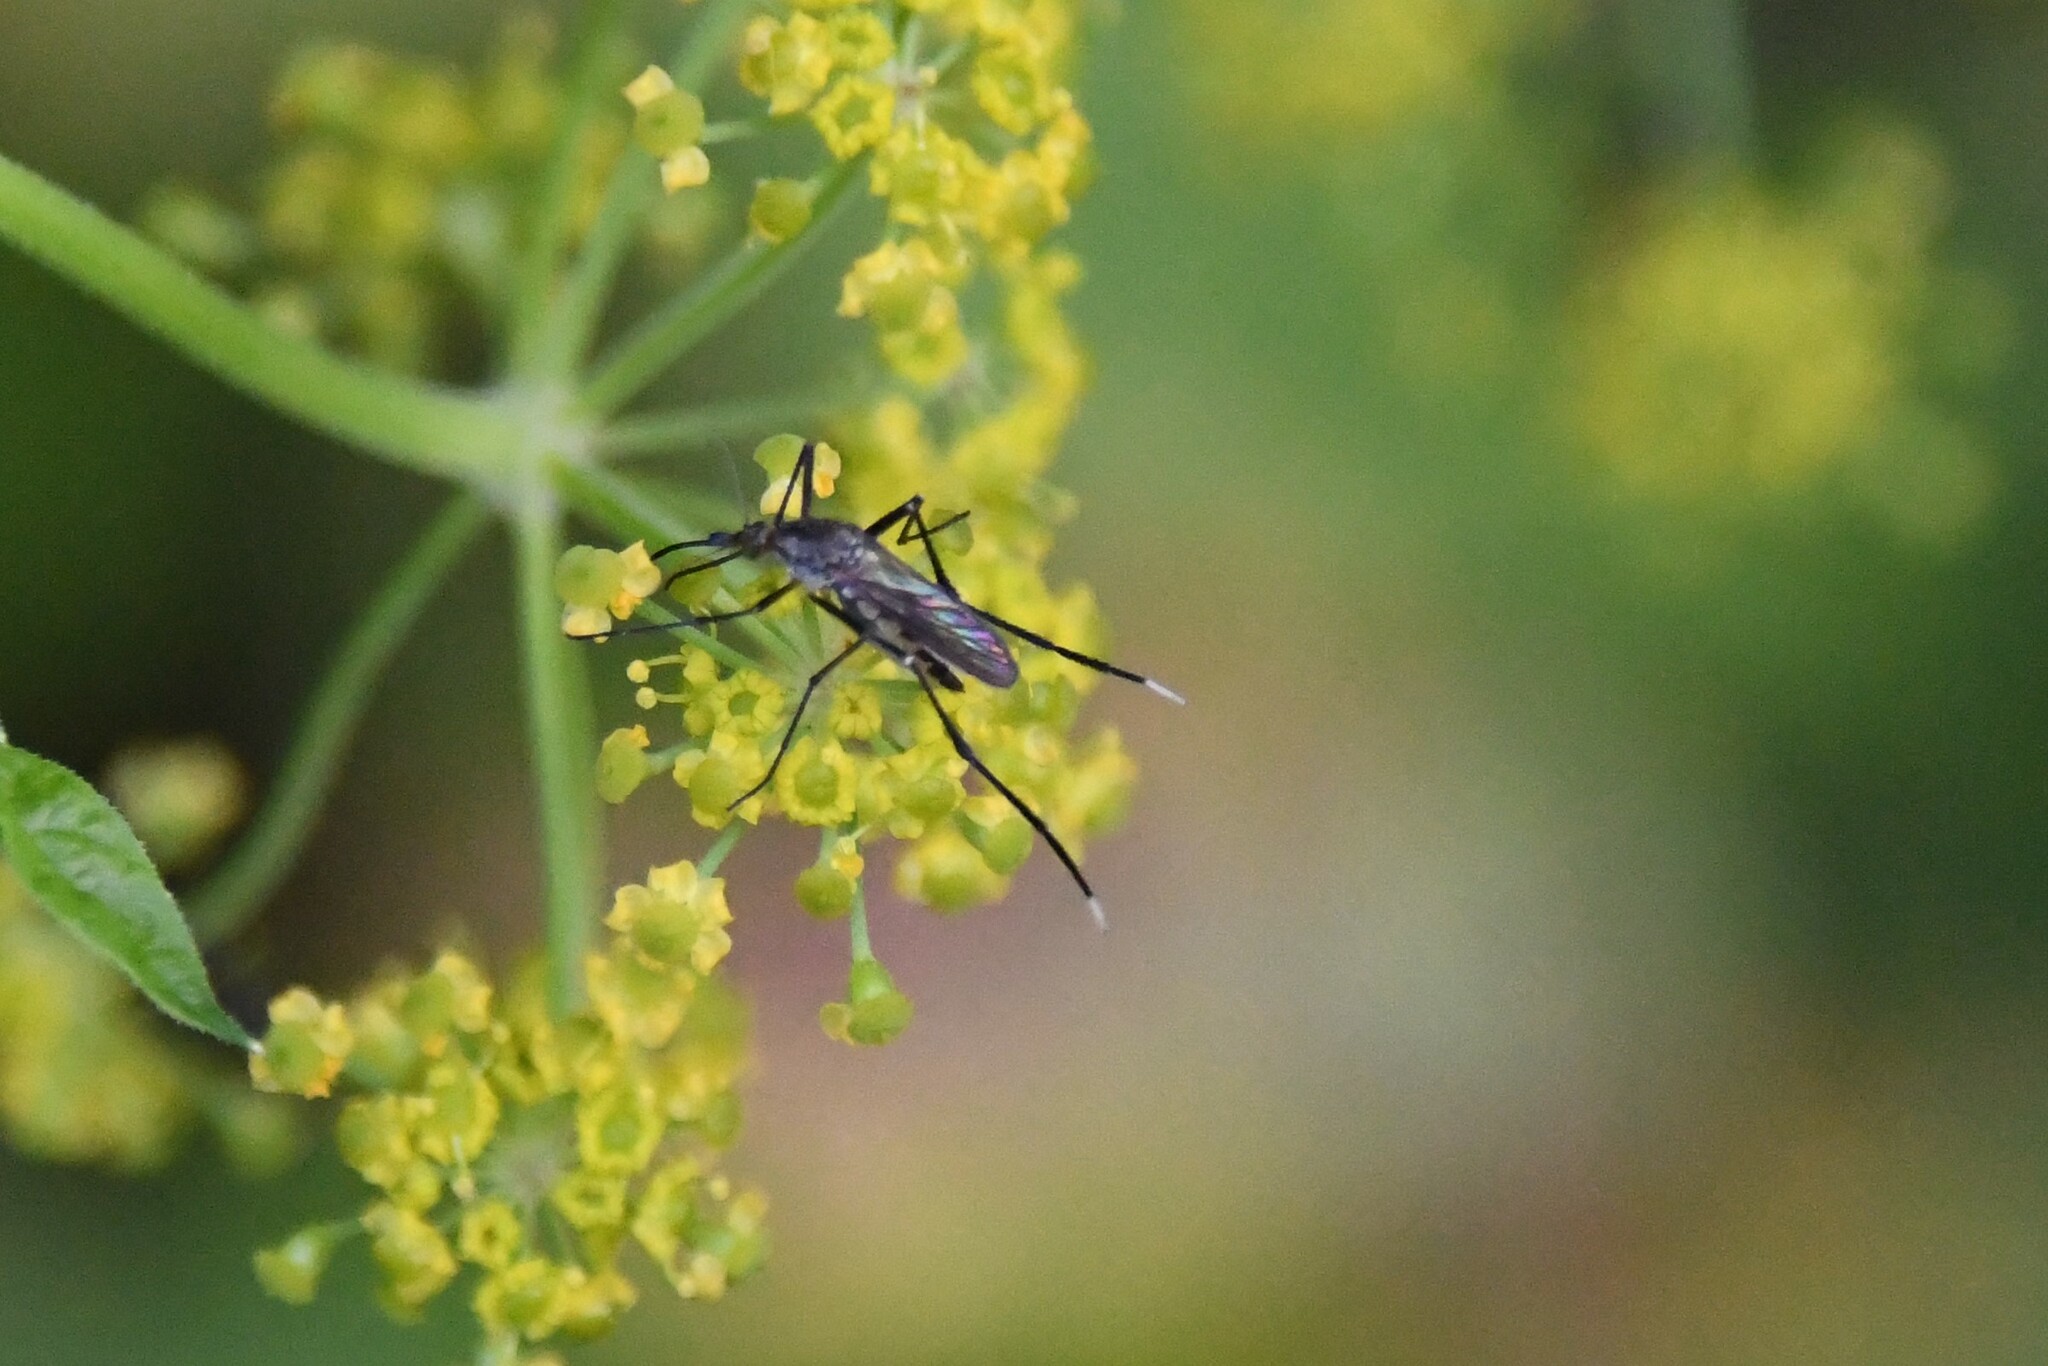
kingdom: Animalia
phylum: Arthropoda
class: Insecta
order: Diptera
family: Culicidae
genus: Psorophora
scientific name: Psorophora ferox
